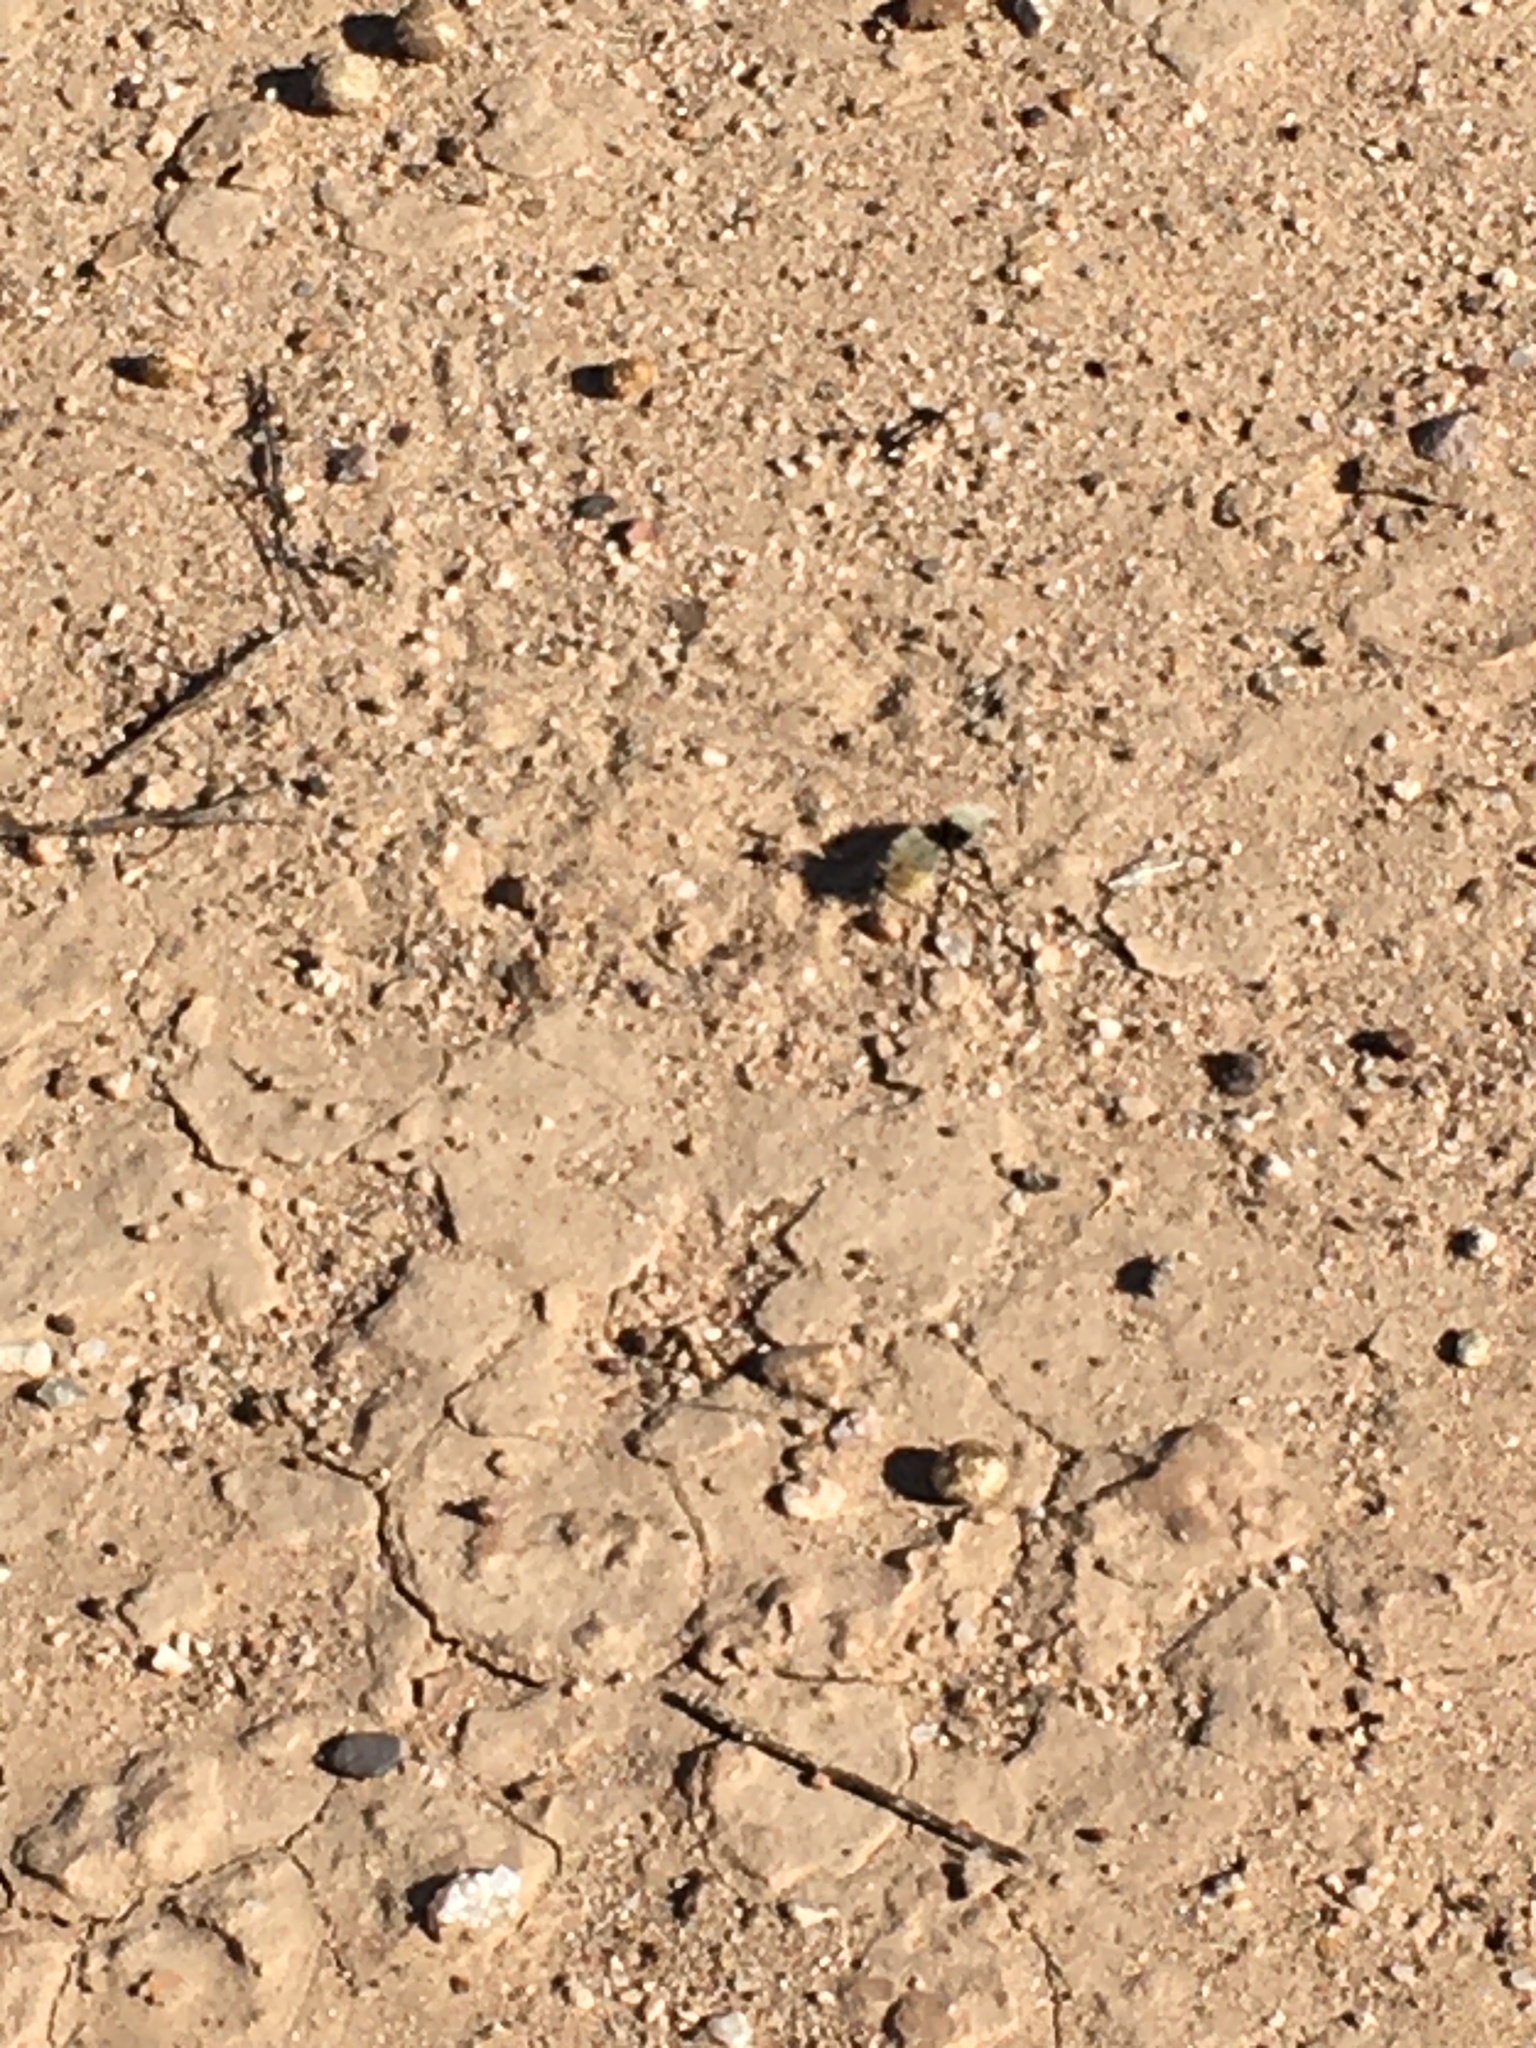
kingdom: Animalia
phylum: Arthropoda
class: Insecta
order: Hymenoptera
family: Mutillidae
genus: Dasymutilla
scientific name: Dasymutilla
